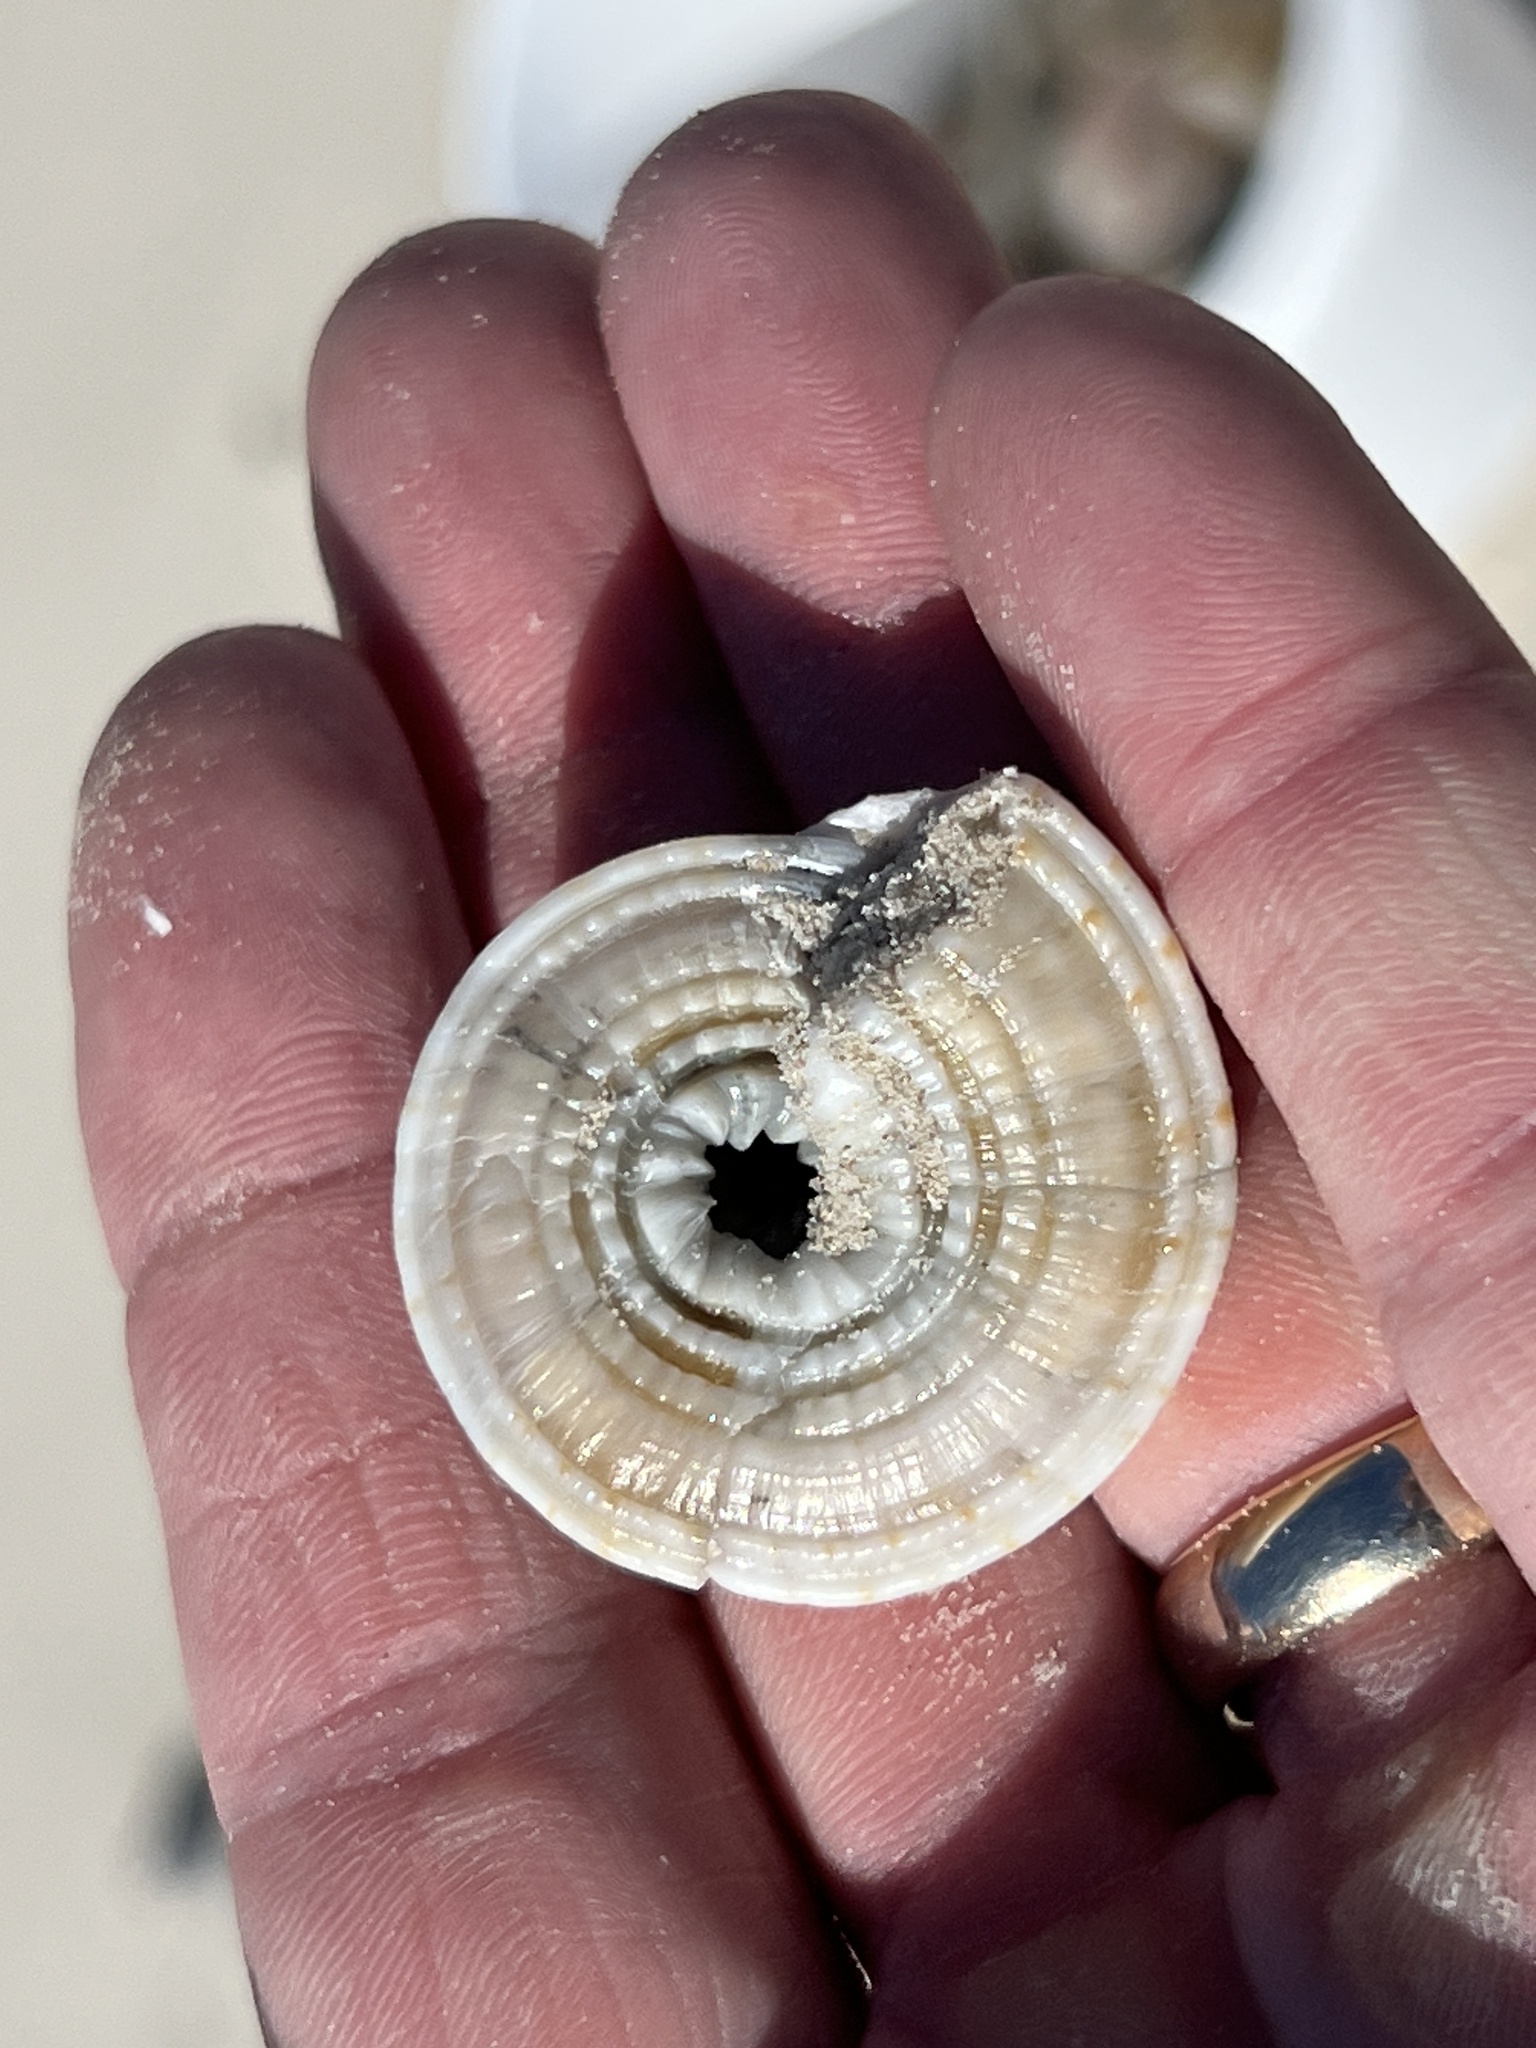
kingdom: Animalia
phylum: Mollusca
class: Gastropoda
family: Architectonicidae
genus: Architectonica
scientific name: Architectonica nobilis
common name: Common sundial
